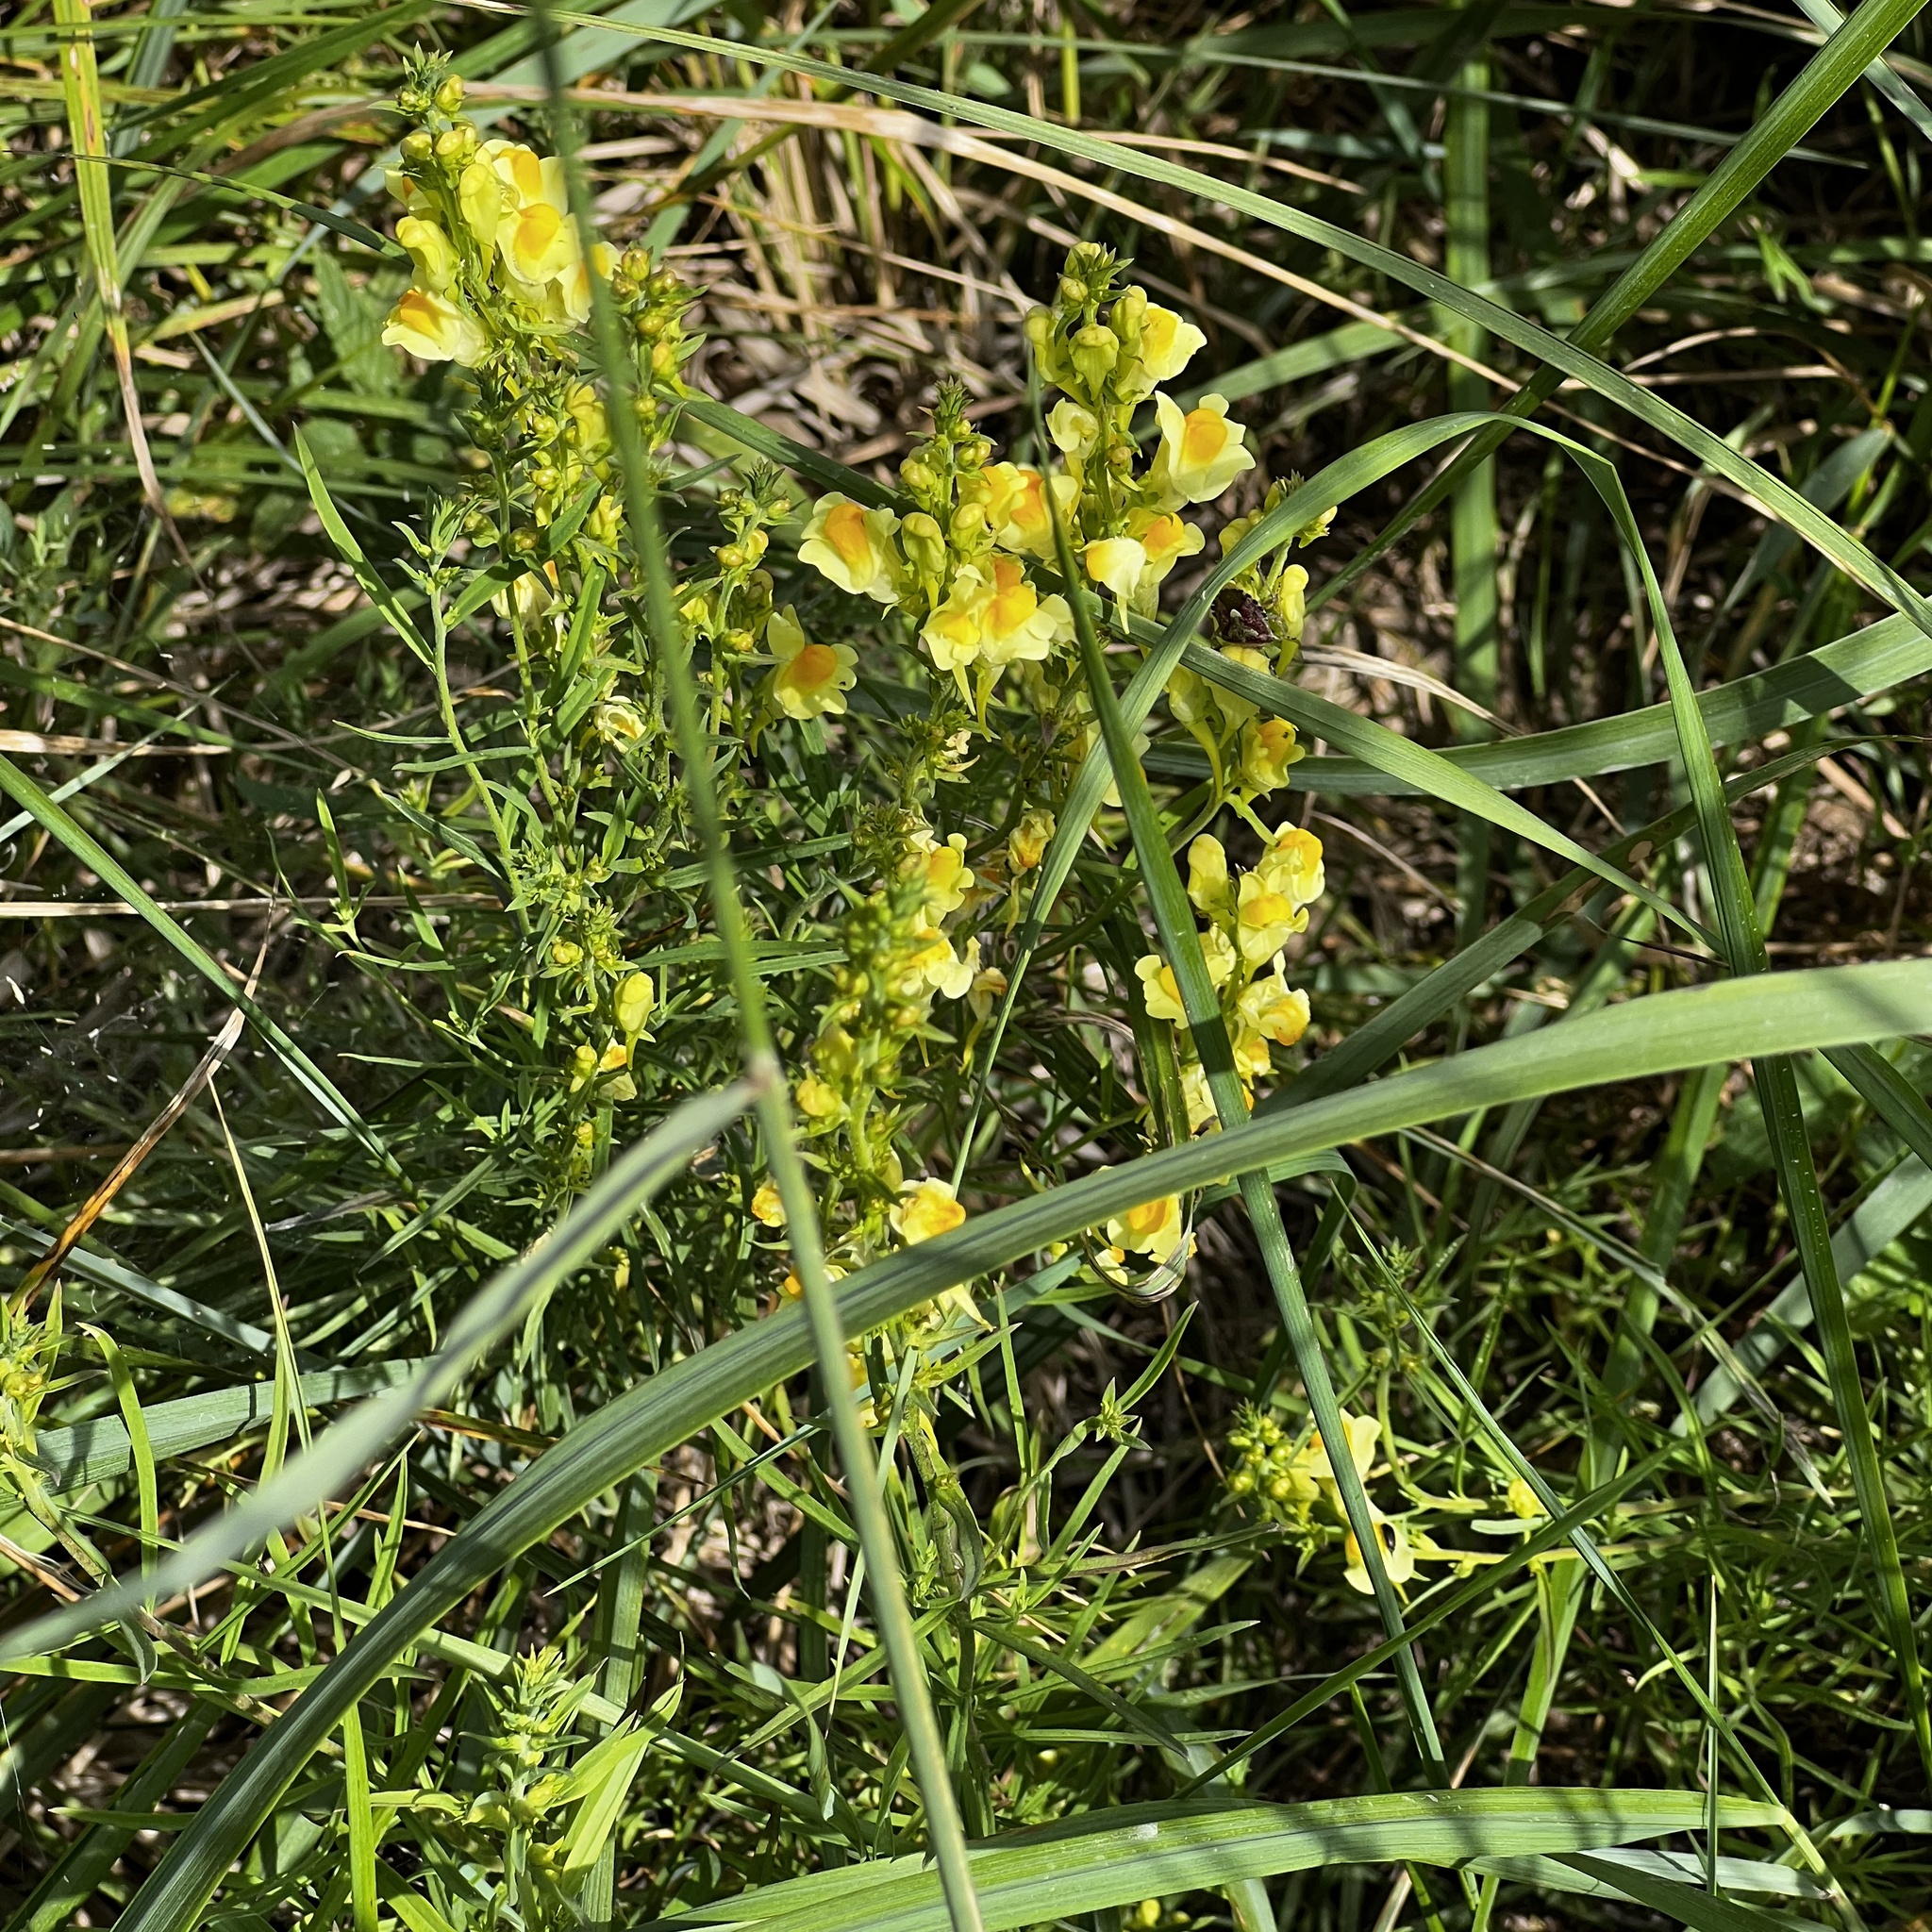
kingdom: Plantae
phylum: Tracheophyta
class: Magnoliopsida
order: Lamiales
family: Plantaginaceae
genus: Linaria
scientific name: Linaria vulgaris
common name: Butter and eggs
